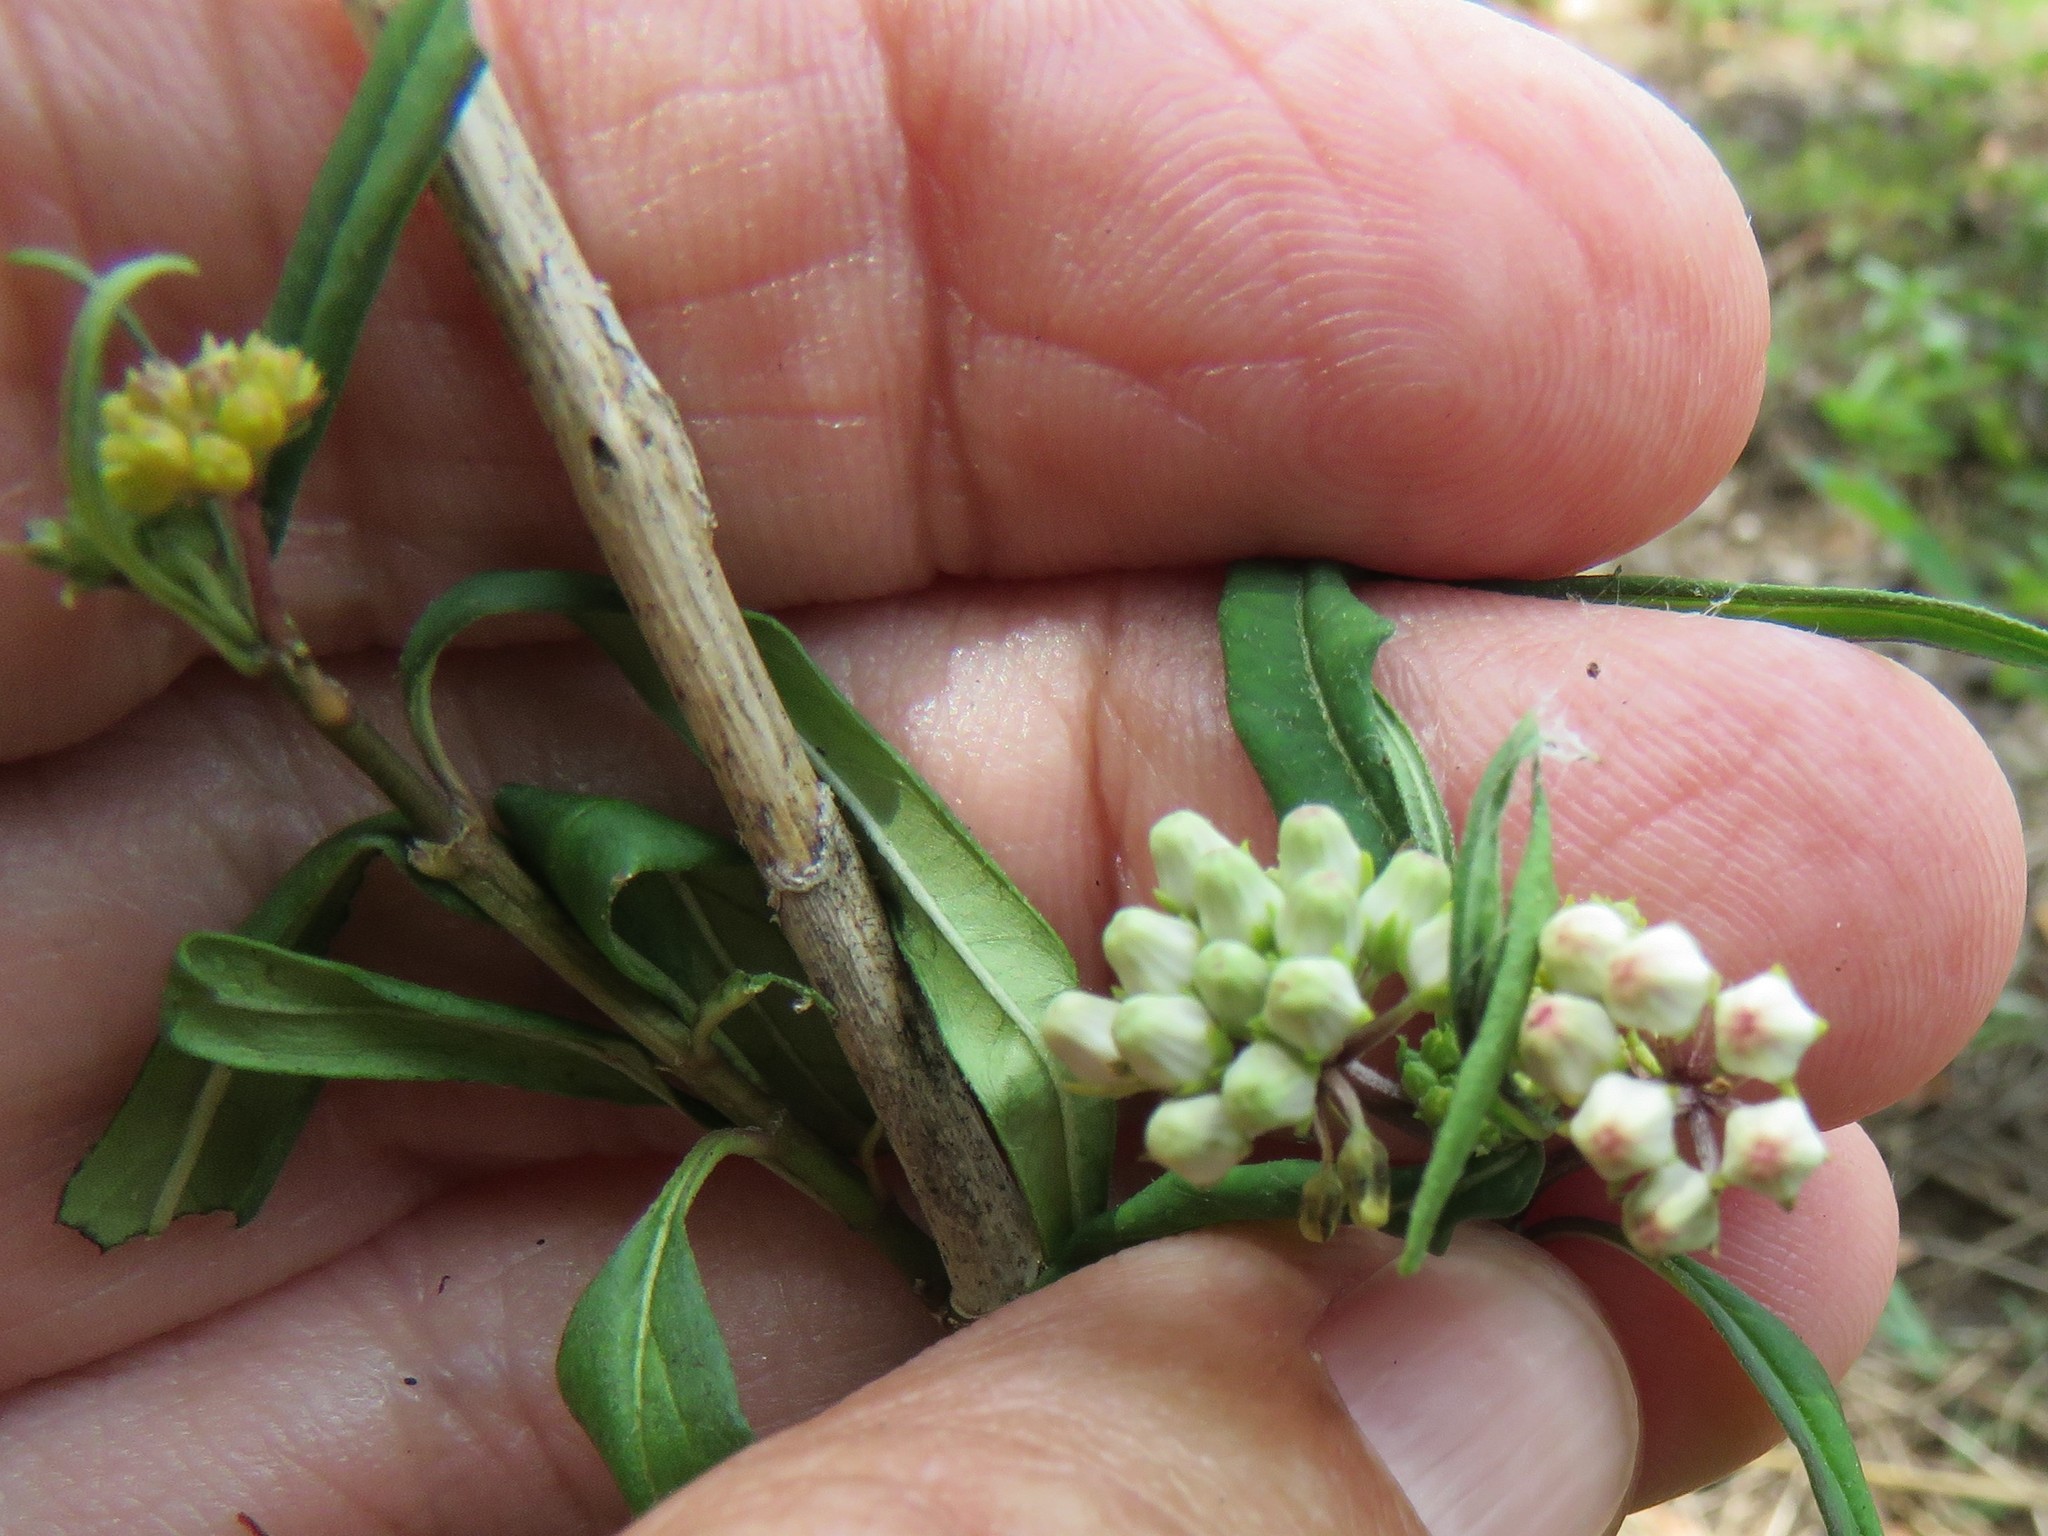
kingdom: Plantae
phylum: Tracheophyta
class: Magnoliopsida
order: Gentianales
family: Apocynaceae
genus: Asclepias
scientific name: Asclepias perennis
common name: Smooth-seed milkweed
